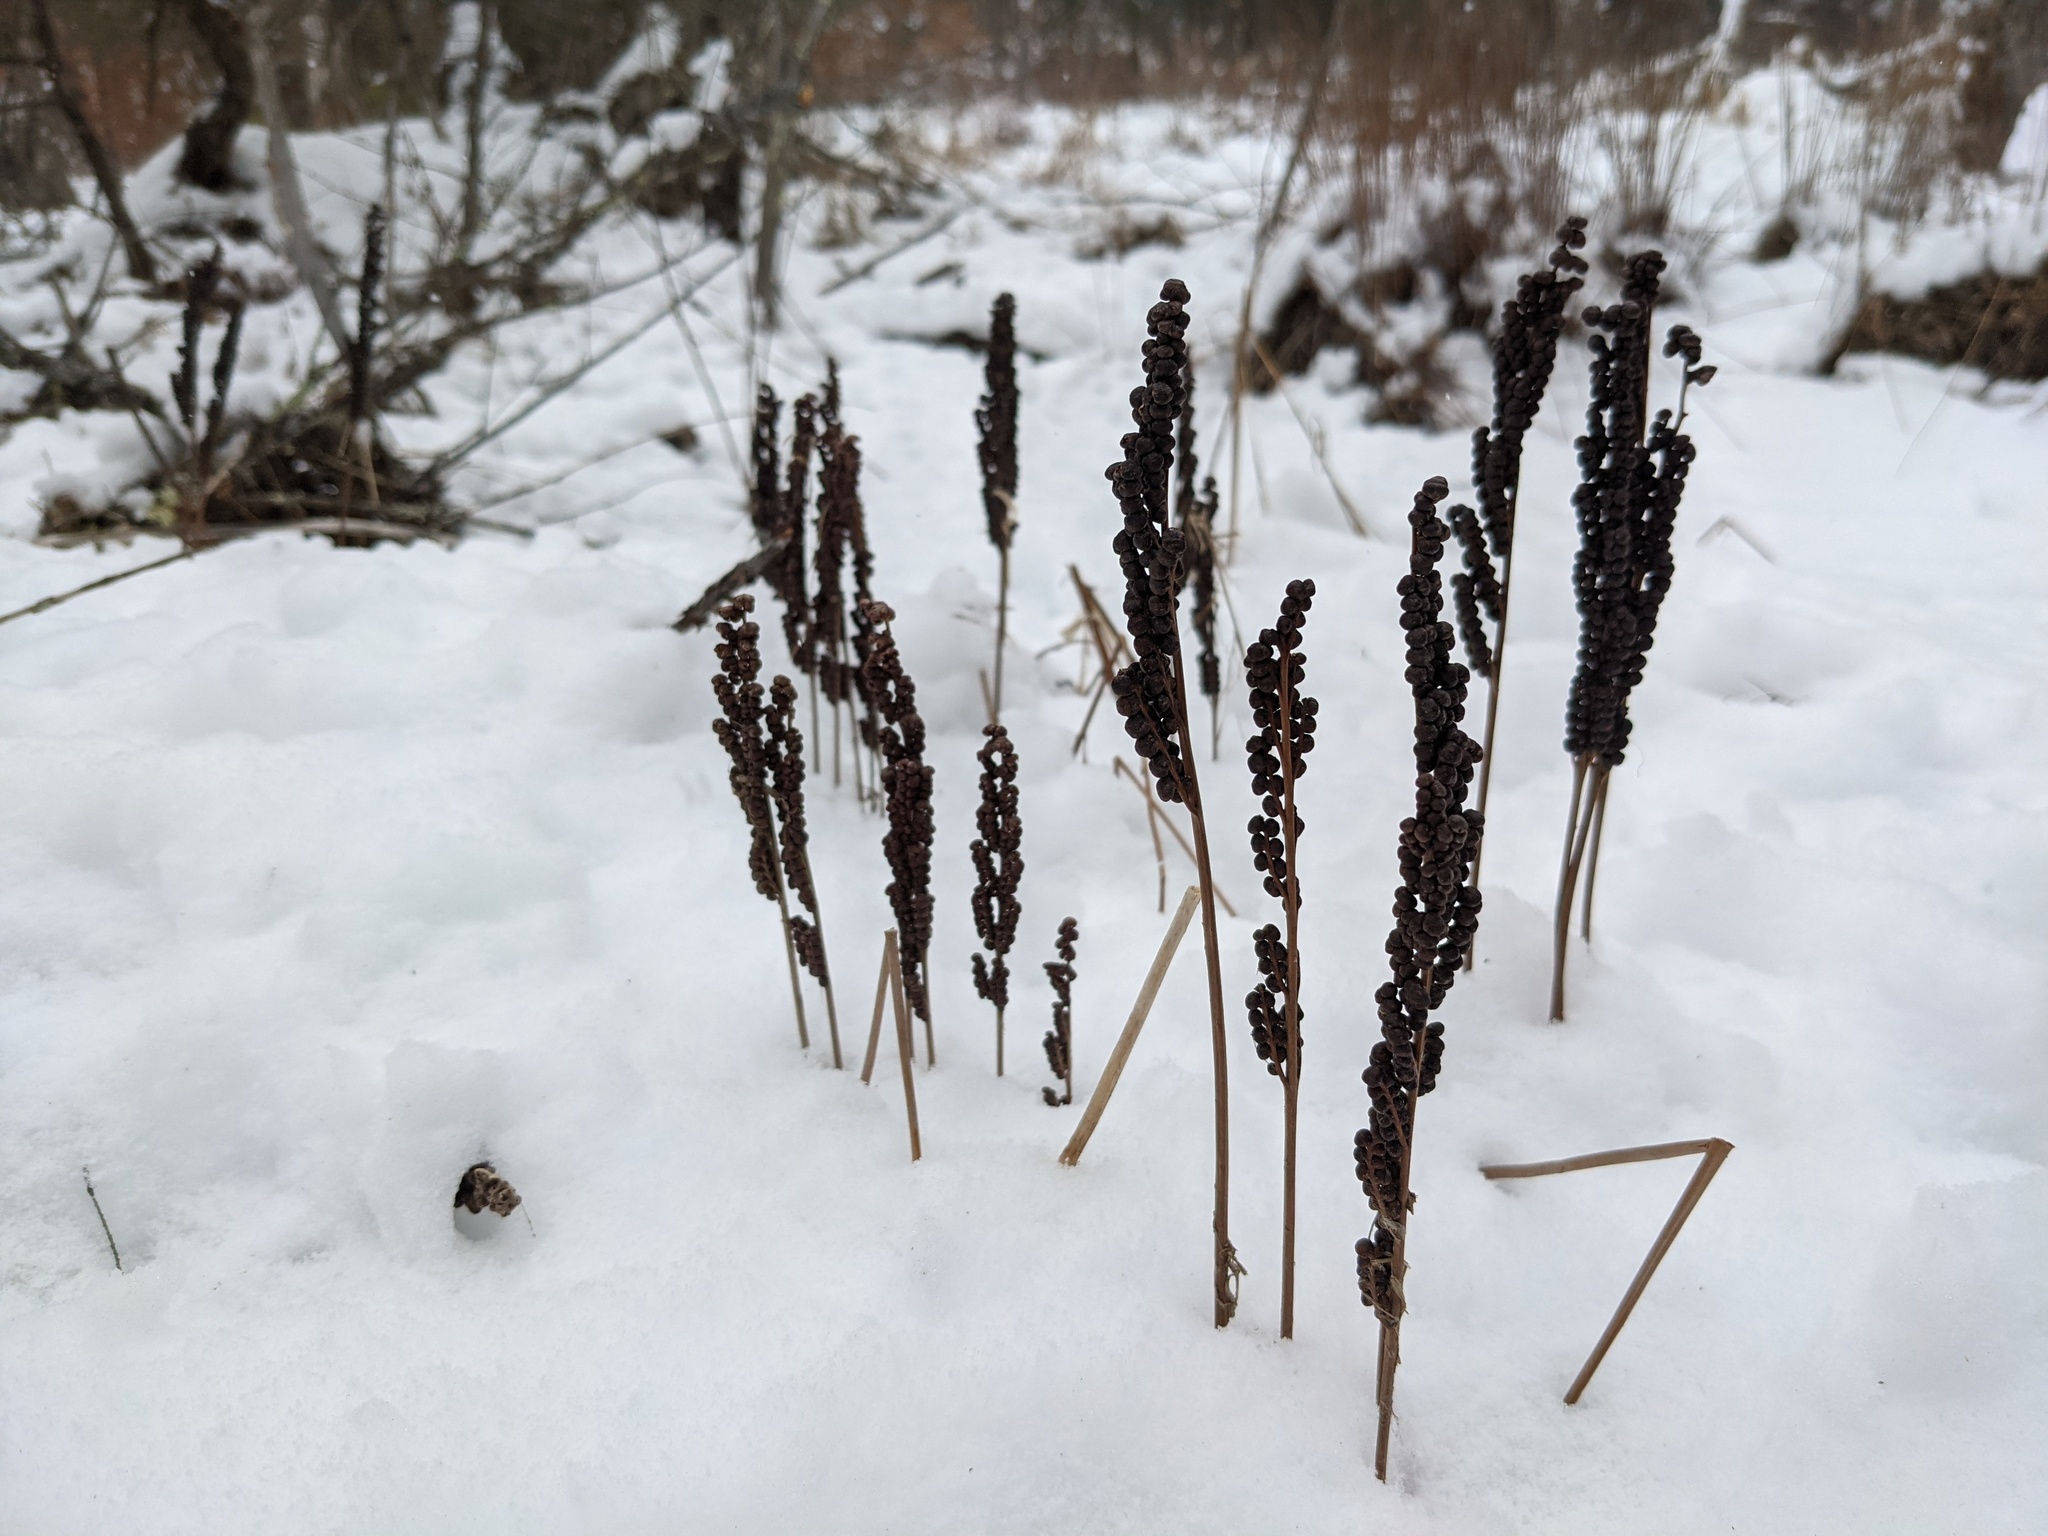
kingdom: Plantae
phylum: Tracheophyta
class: Polypodiopsida
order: Polypodiales
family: Onocleaceae
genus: Onoclea
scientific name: Onoclea sensibilis
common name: Sensitive fern
